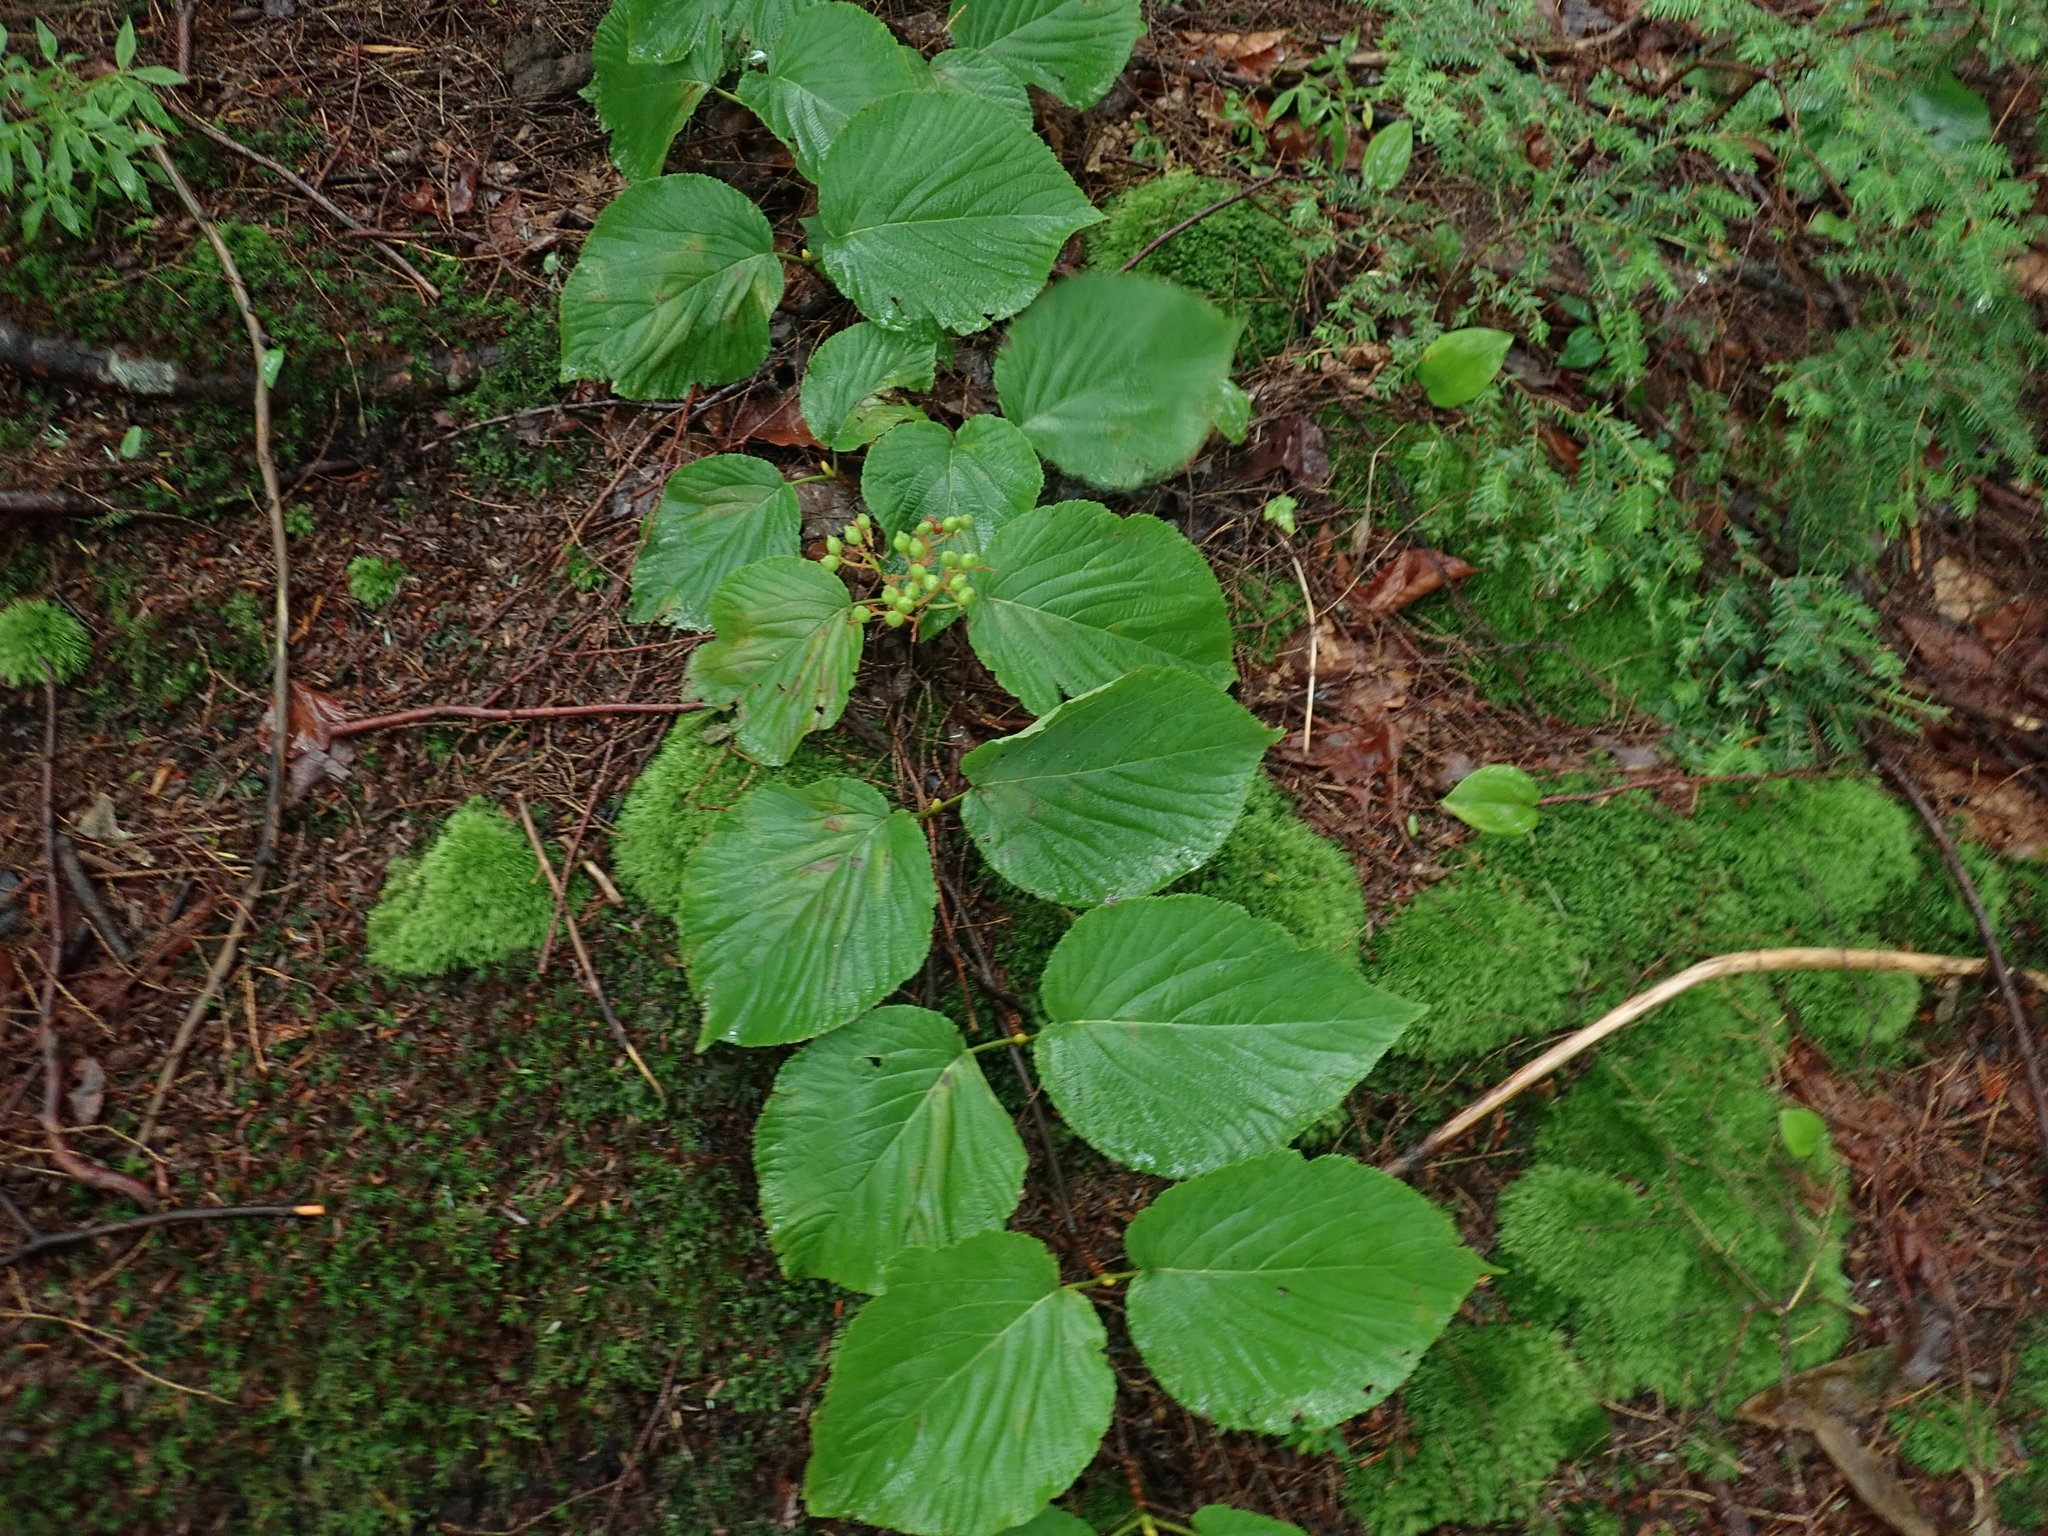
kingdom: Plantae
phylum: Tracheophyta
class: Magnoliopsida
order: Dipsacales
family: Viburnaceae
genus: Viburnum
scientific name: Viburnum lantanoides
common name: Hobblebush
